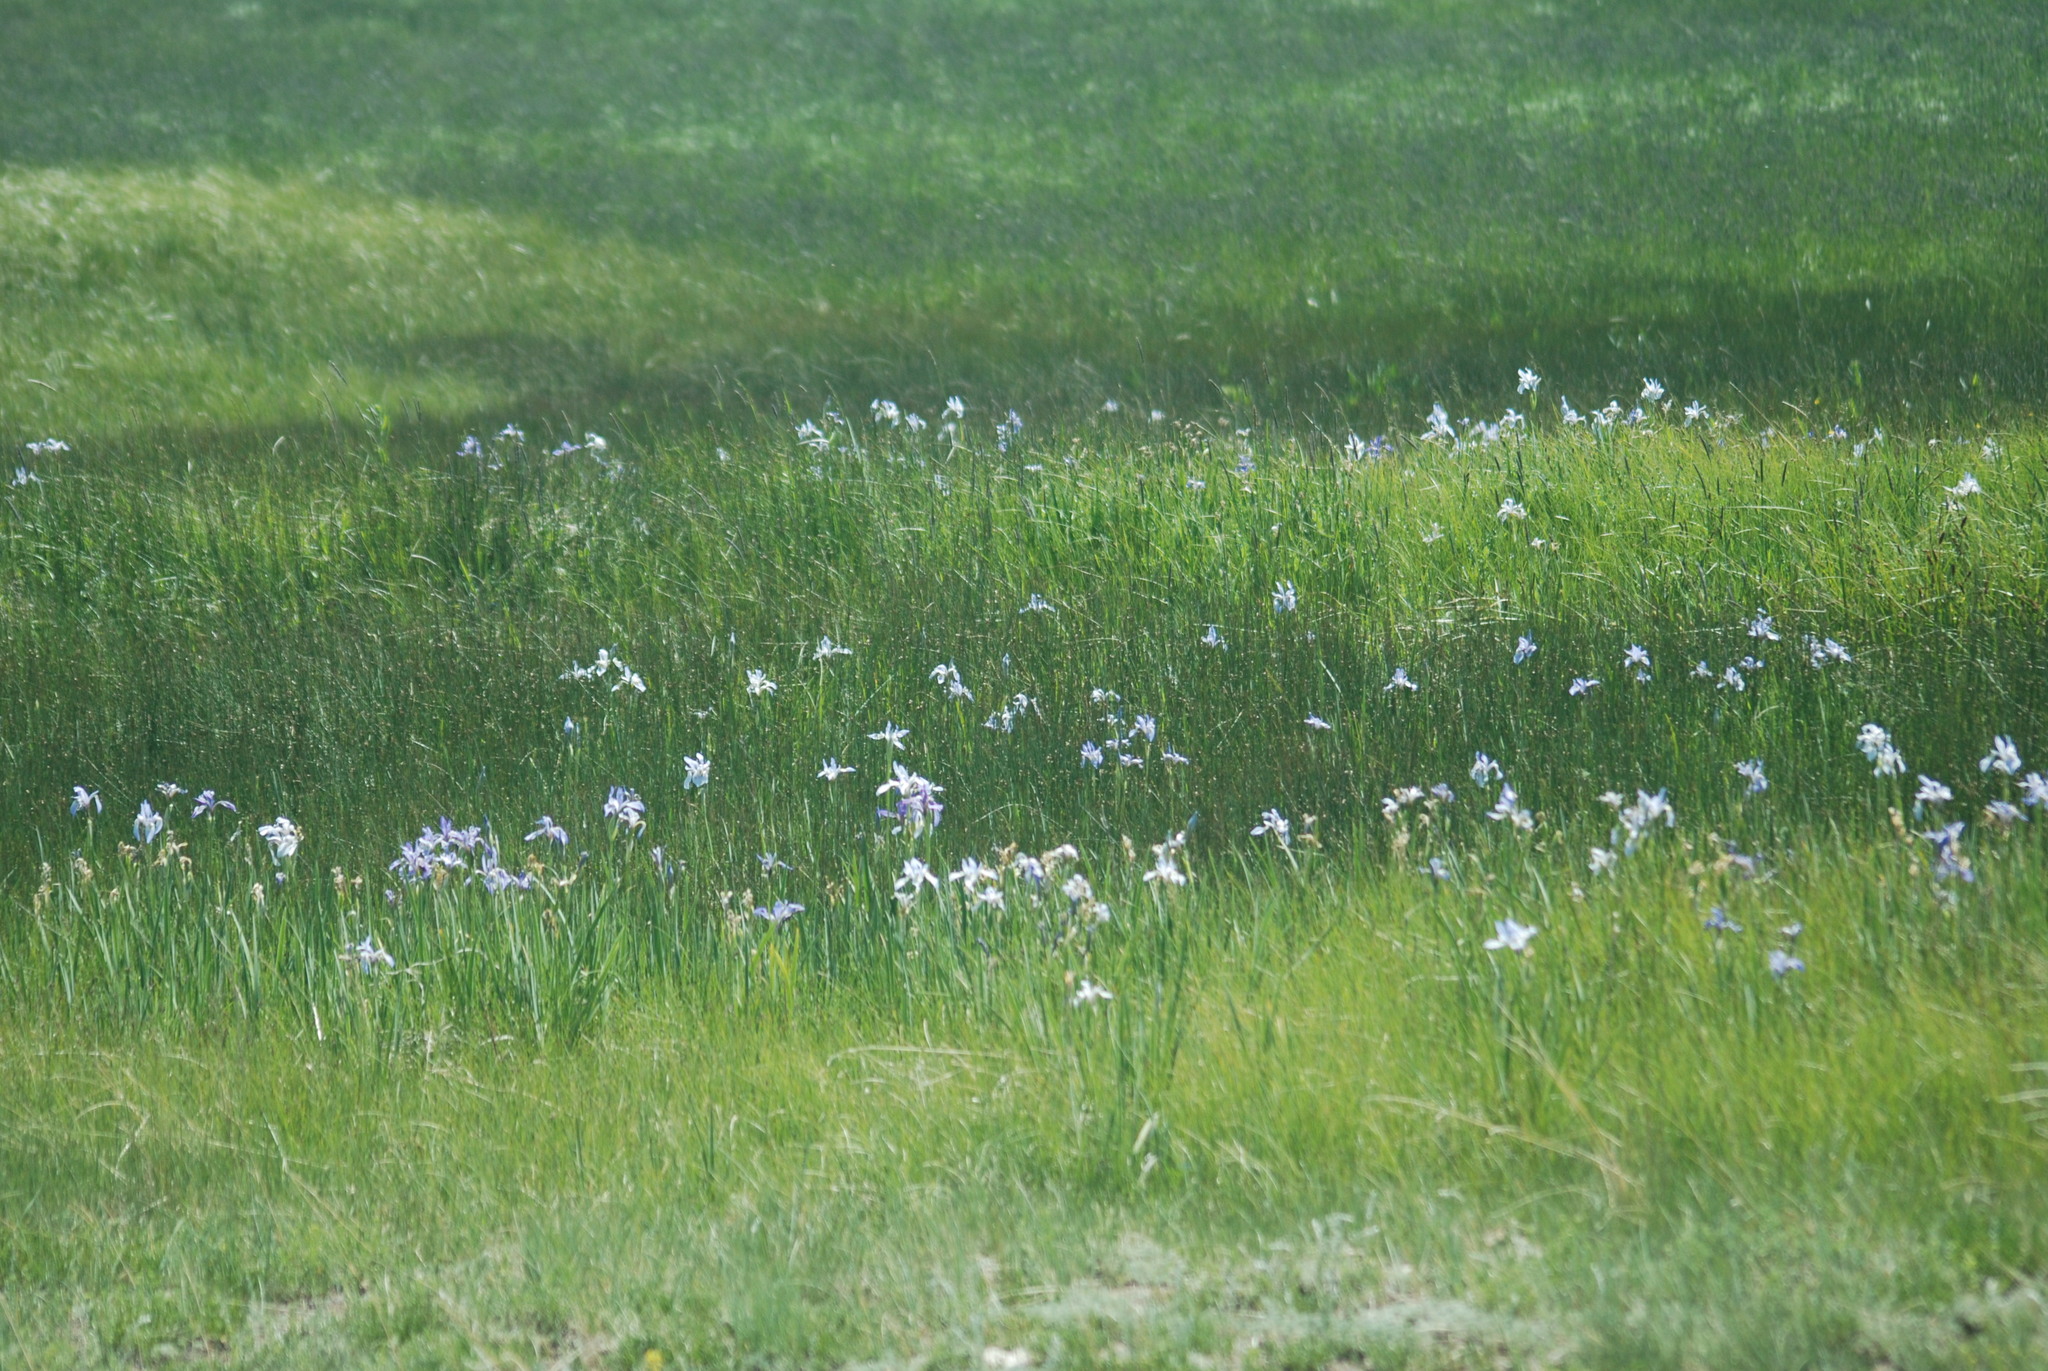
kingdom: Plantae
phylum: Tracheophyta
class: Liliopsida
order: Asparagales
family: Iridaceae
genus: Iris
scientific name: Iris missouriensis
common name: Rocky mountain iris
